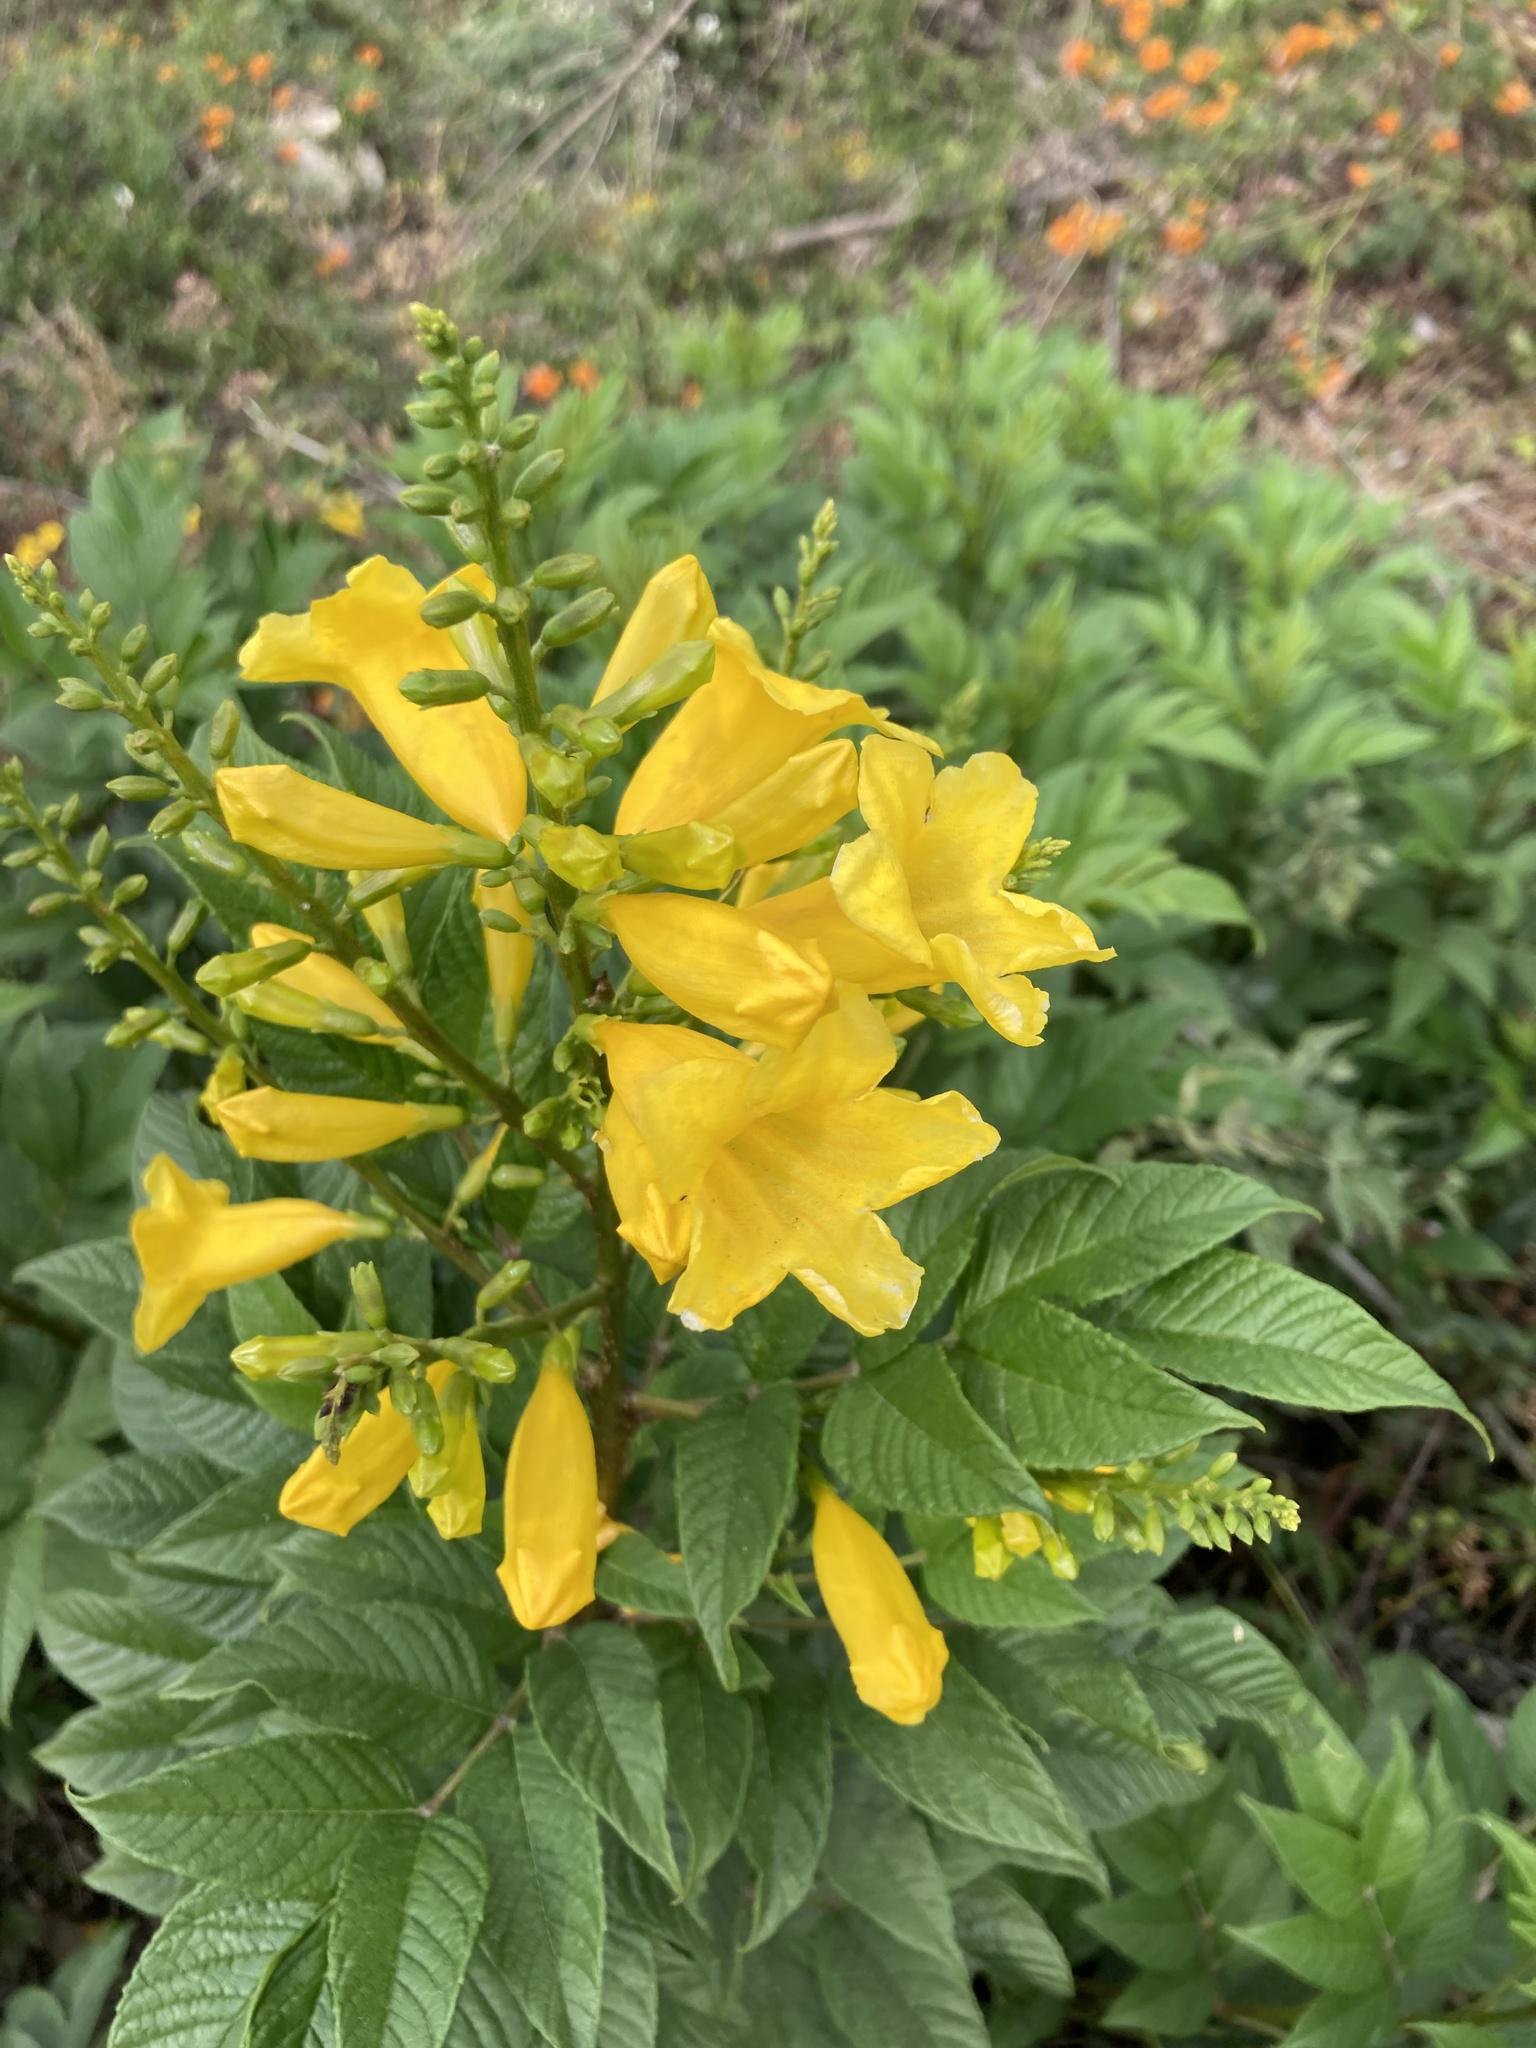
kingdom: Plantae
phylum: Tracheophyta
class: Magnoliopsida
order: Lamiales
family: Bignoniaceae
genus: Tecoma
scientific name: Tecoma stans
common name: Yellow trumpetbush
